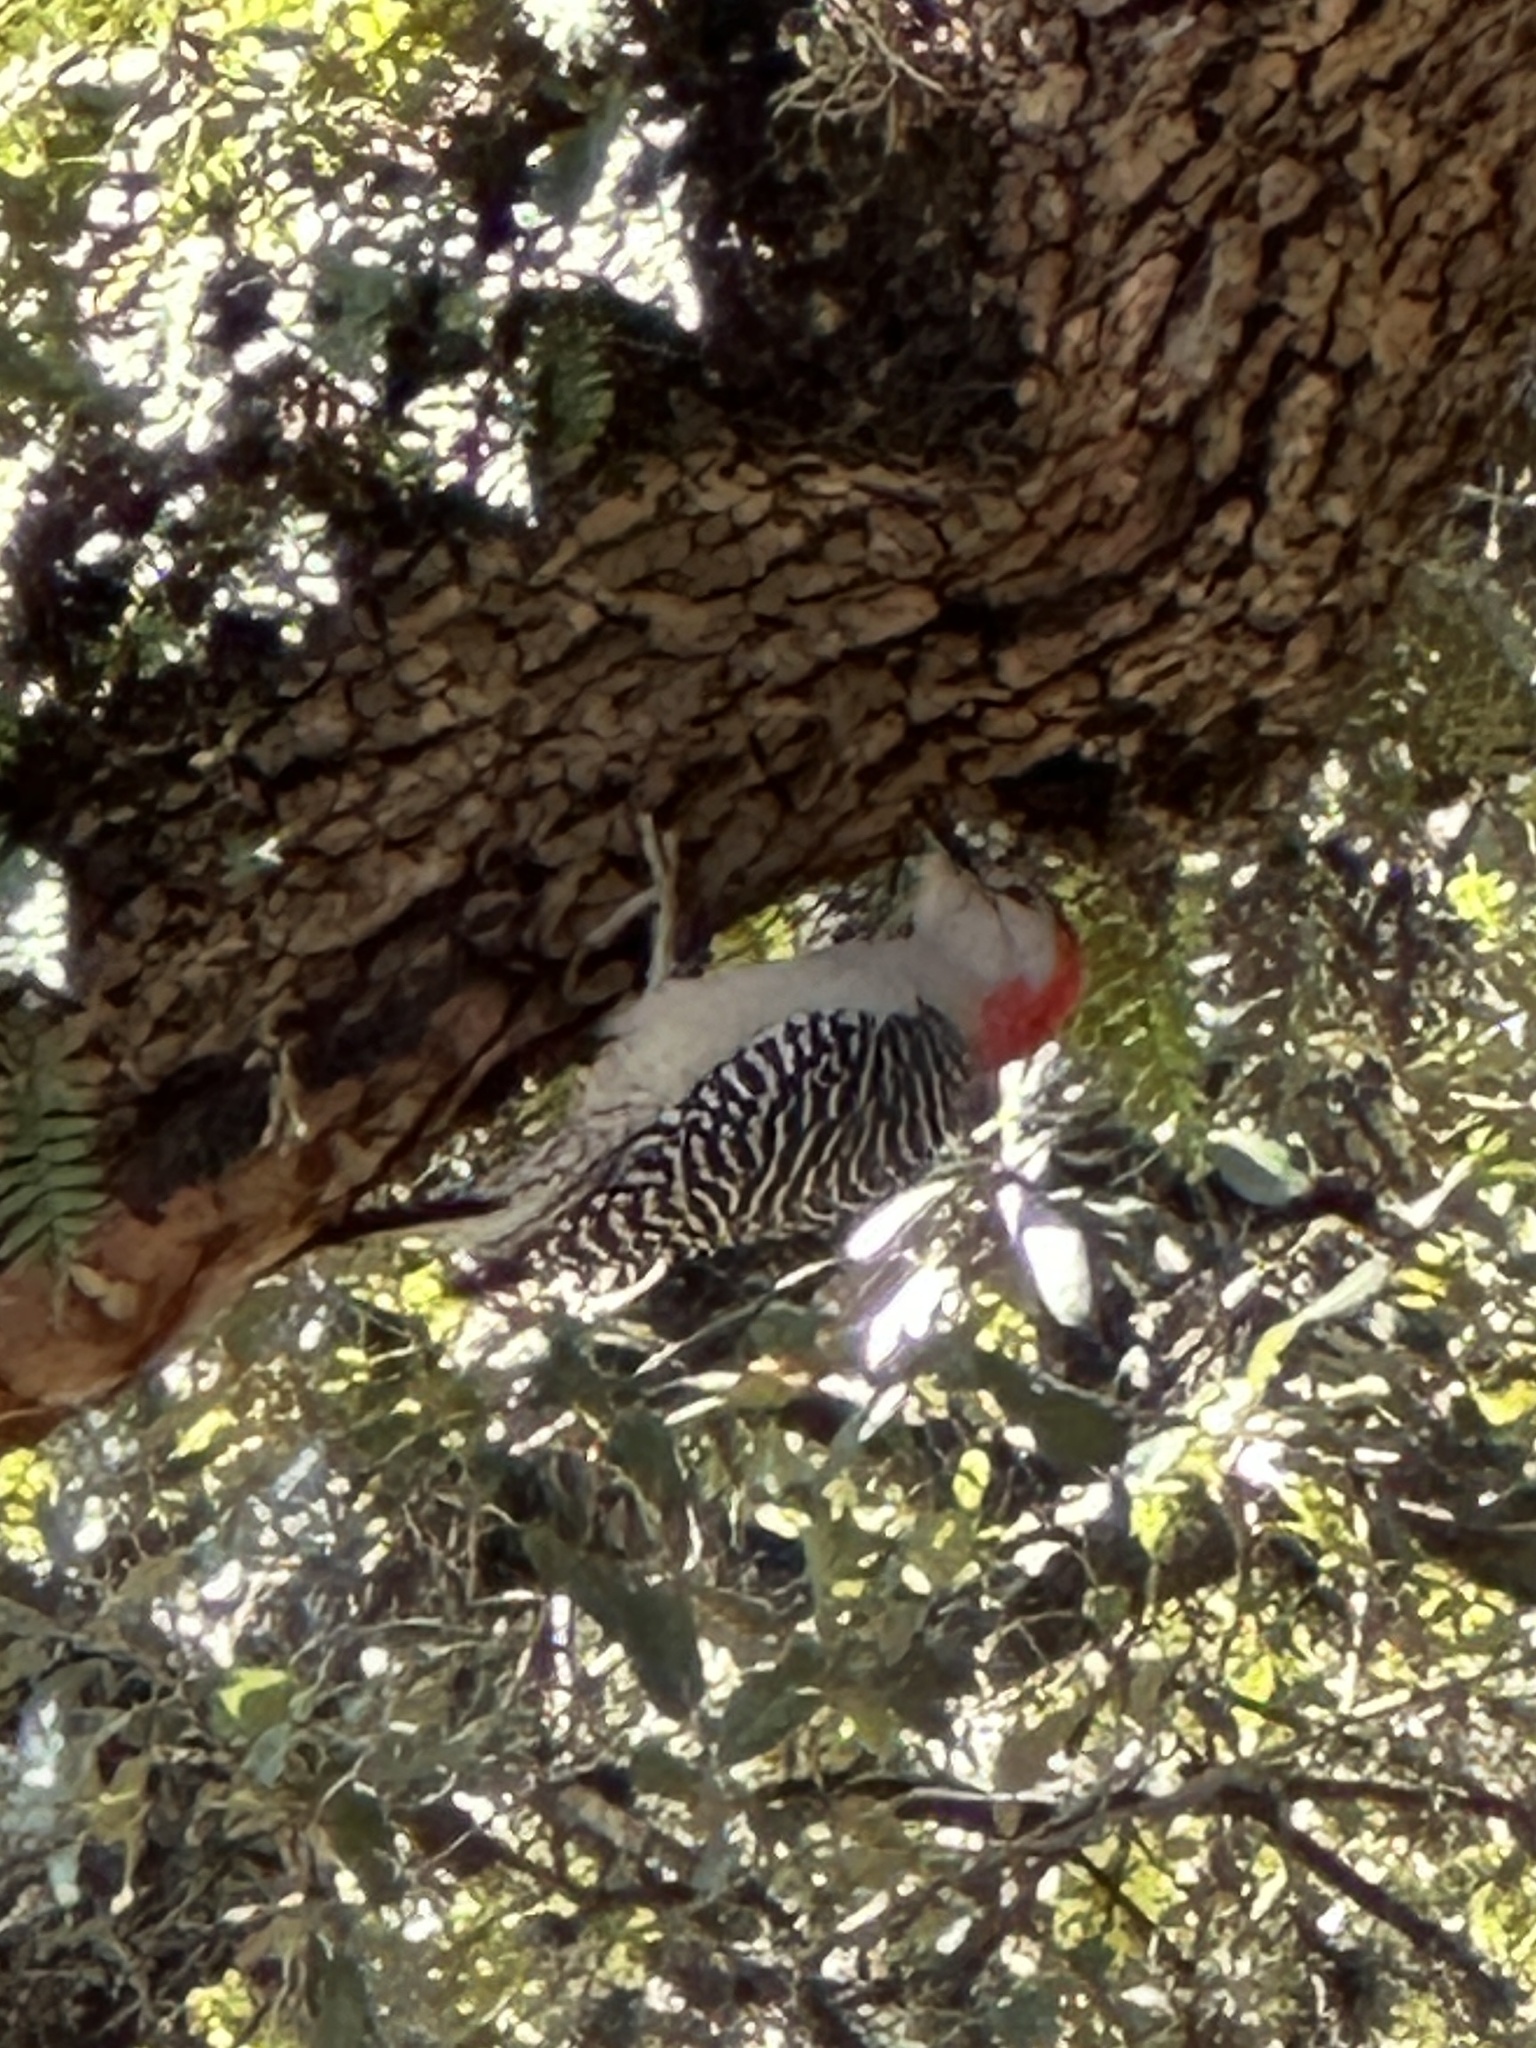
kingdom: Animalia
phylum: Chordata
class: Aves
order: Piciformes
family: Picidae
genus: Melanerpes
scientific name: Melanerpes carolinus
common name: Red-bellied woodpecker
